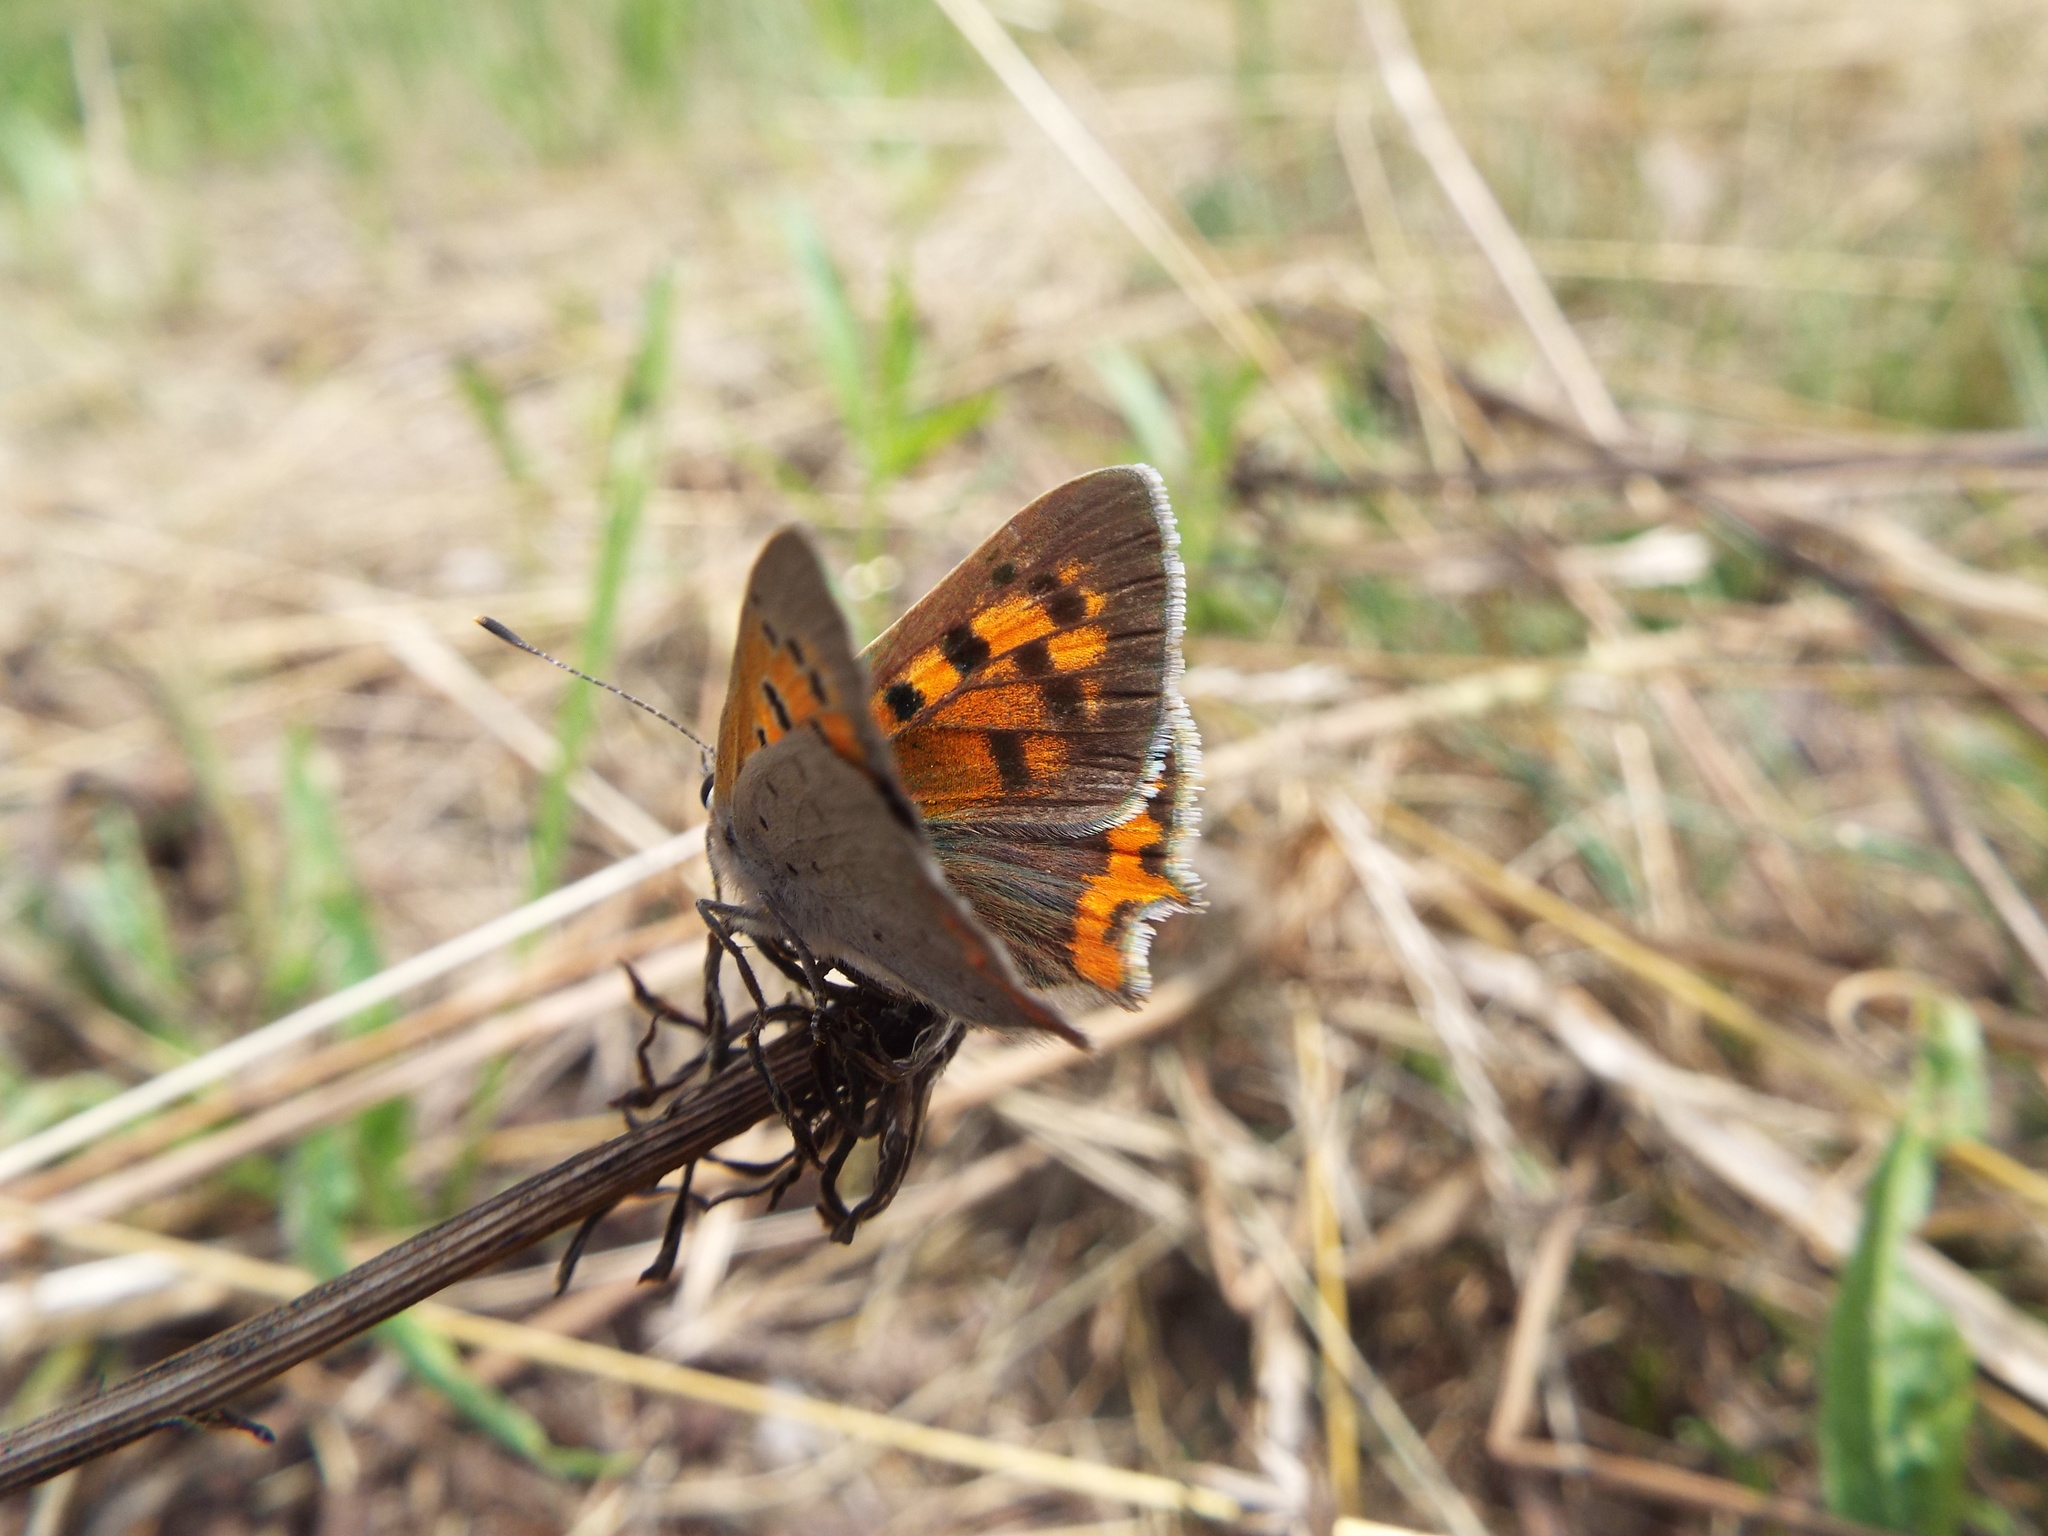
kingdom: Animalia
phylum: Arthropoda
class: Insecta
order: Lepidoptera
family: Lycaenidae
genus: Lycaena
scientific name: Lycaena phlaeas
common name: Small copper
